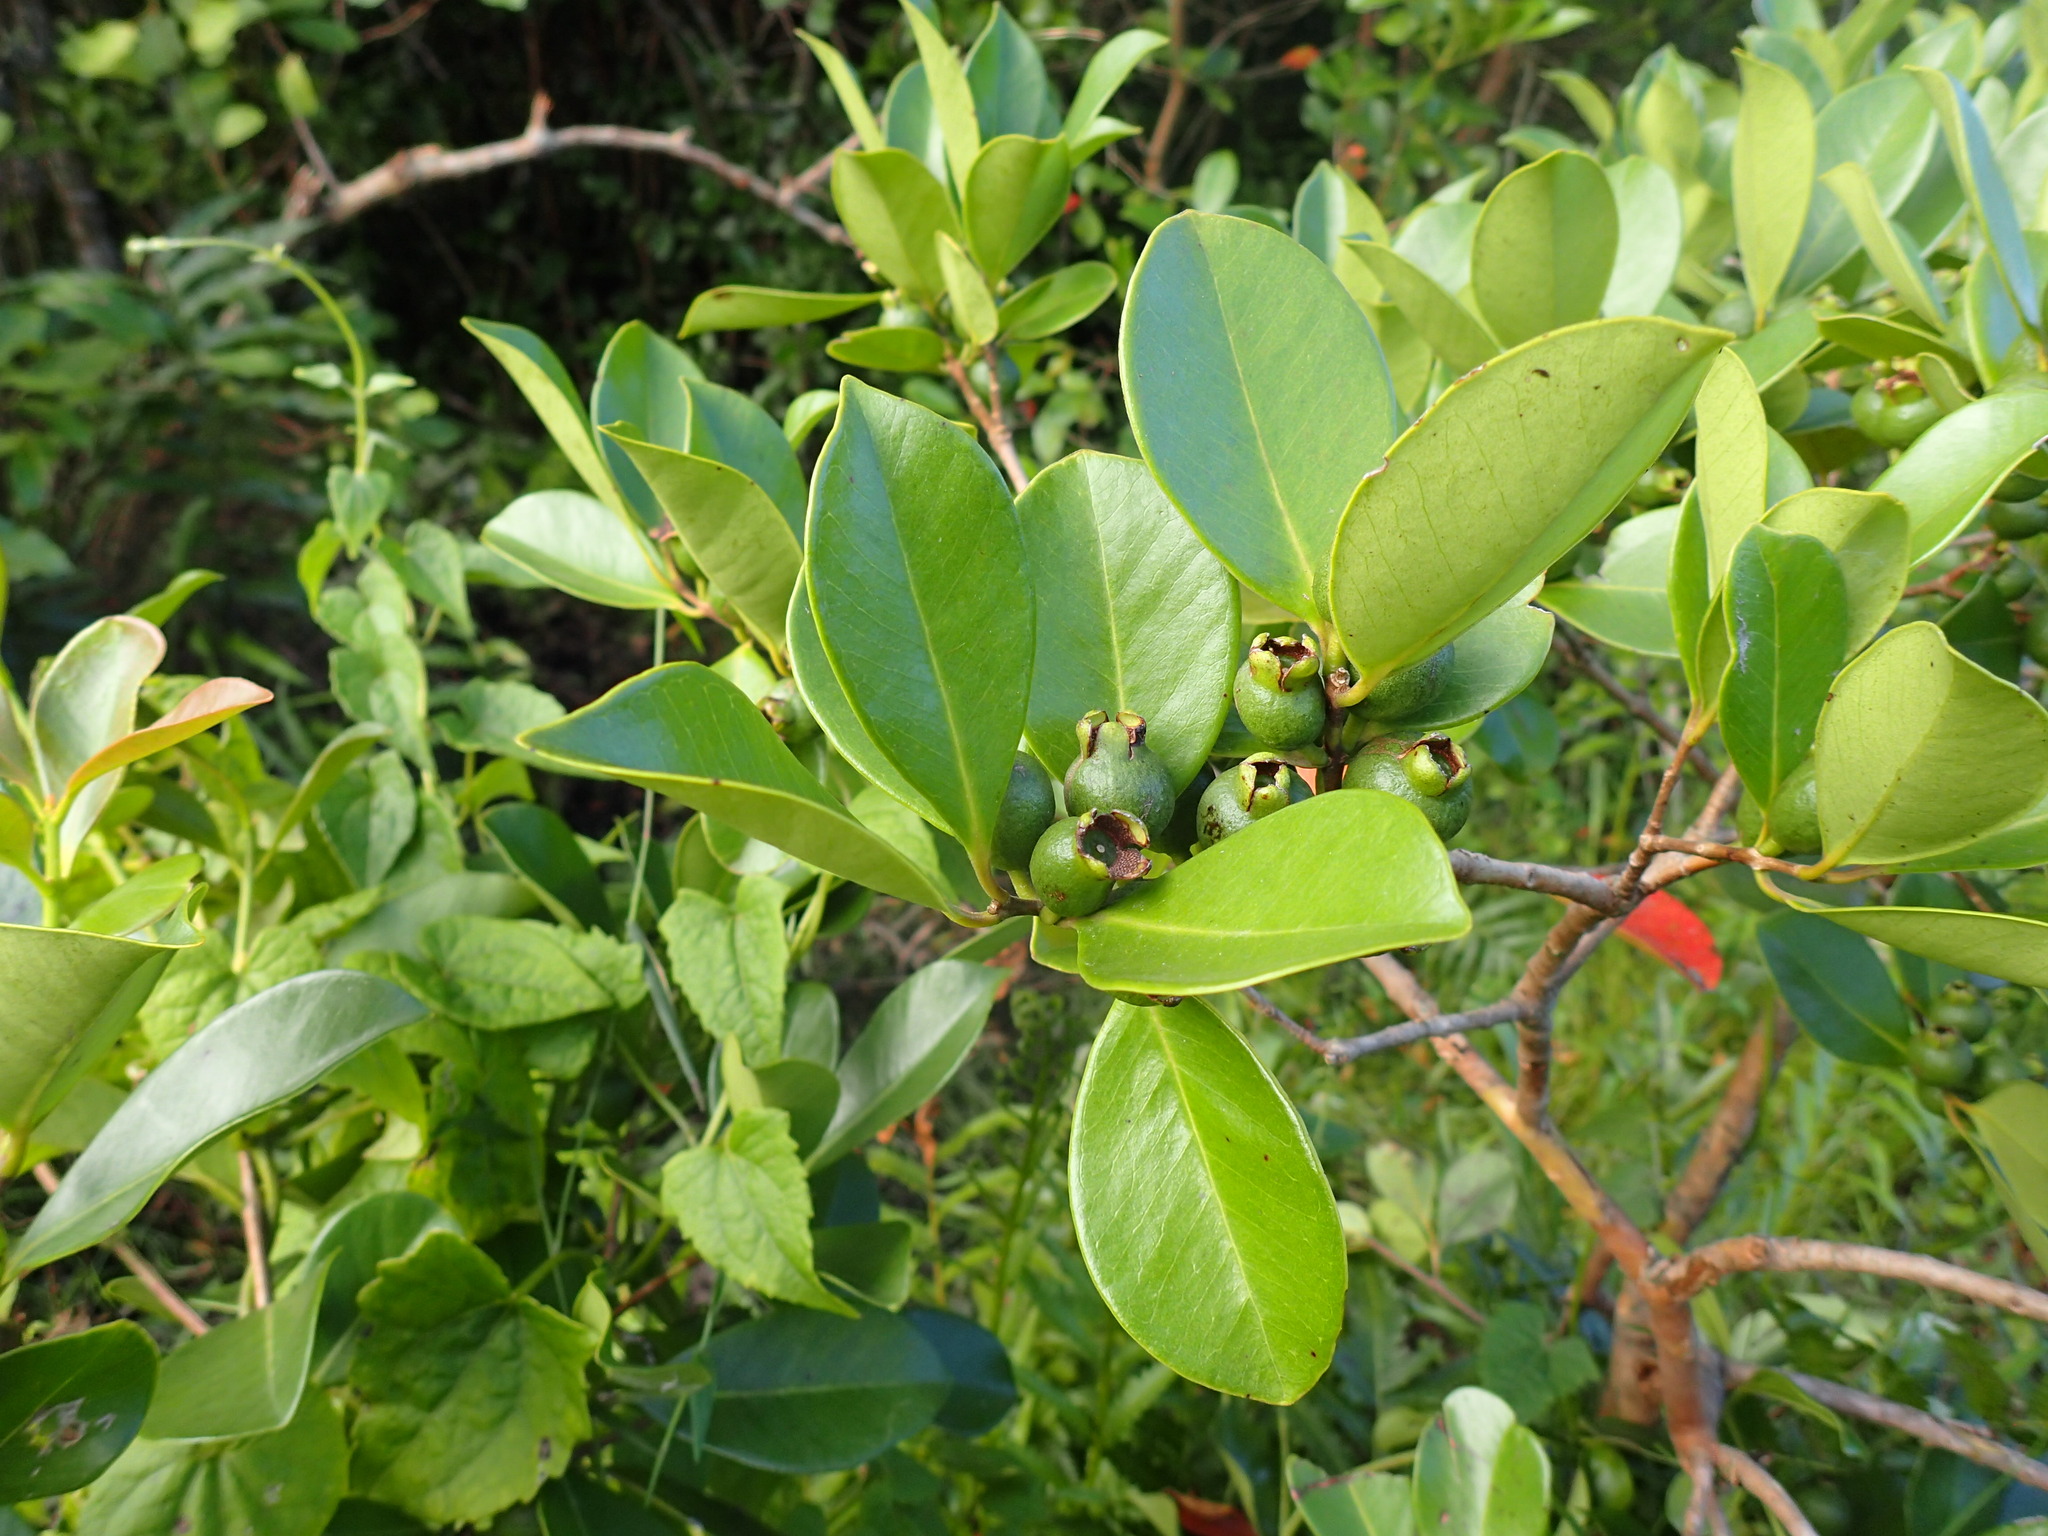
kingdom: Plantae
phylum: Tracheophyta
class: Magnoliopsida
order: Myrtales
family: Myrtaceae
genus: Psidium
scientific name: Psidium cattleianum
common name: Strawberry guava
